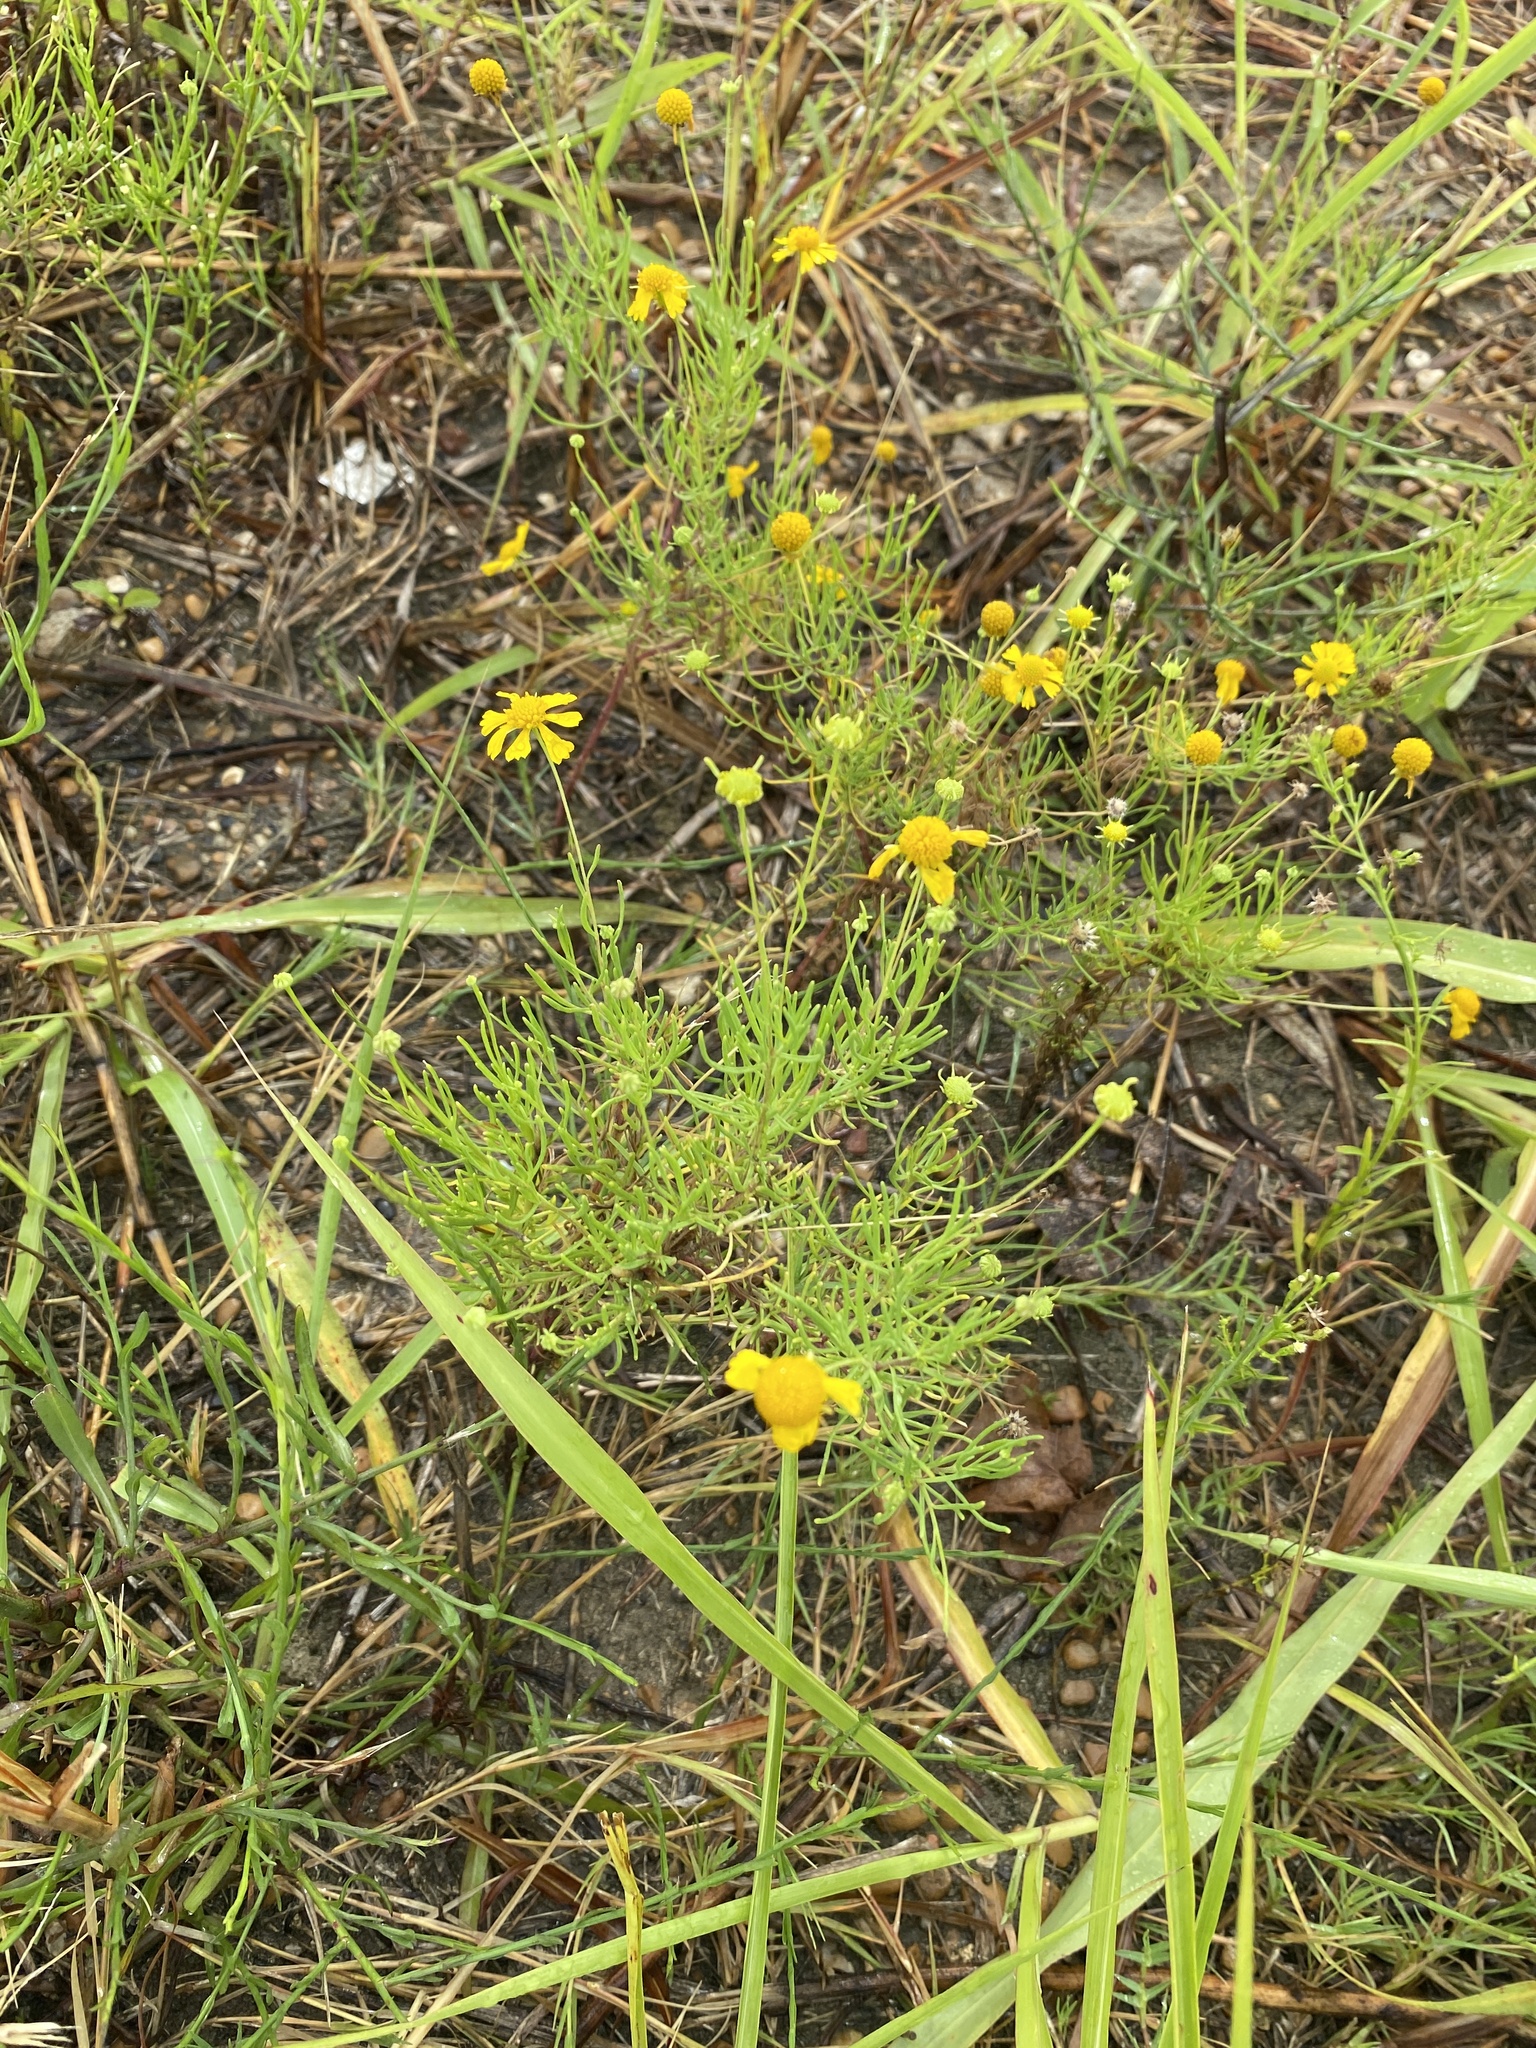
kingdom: Plantae
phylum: Tracheophyta
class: Magnoliopsida
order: Asterales
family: Asteraceae
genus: Helenium
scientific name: Helenium amarum
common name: Bitter sneezeweed
